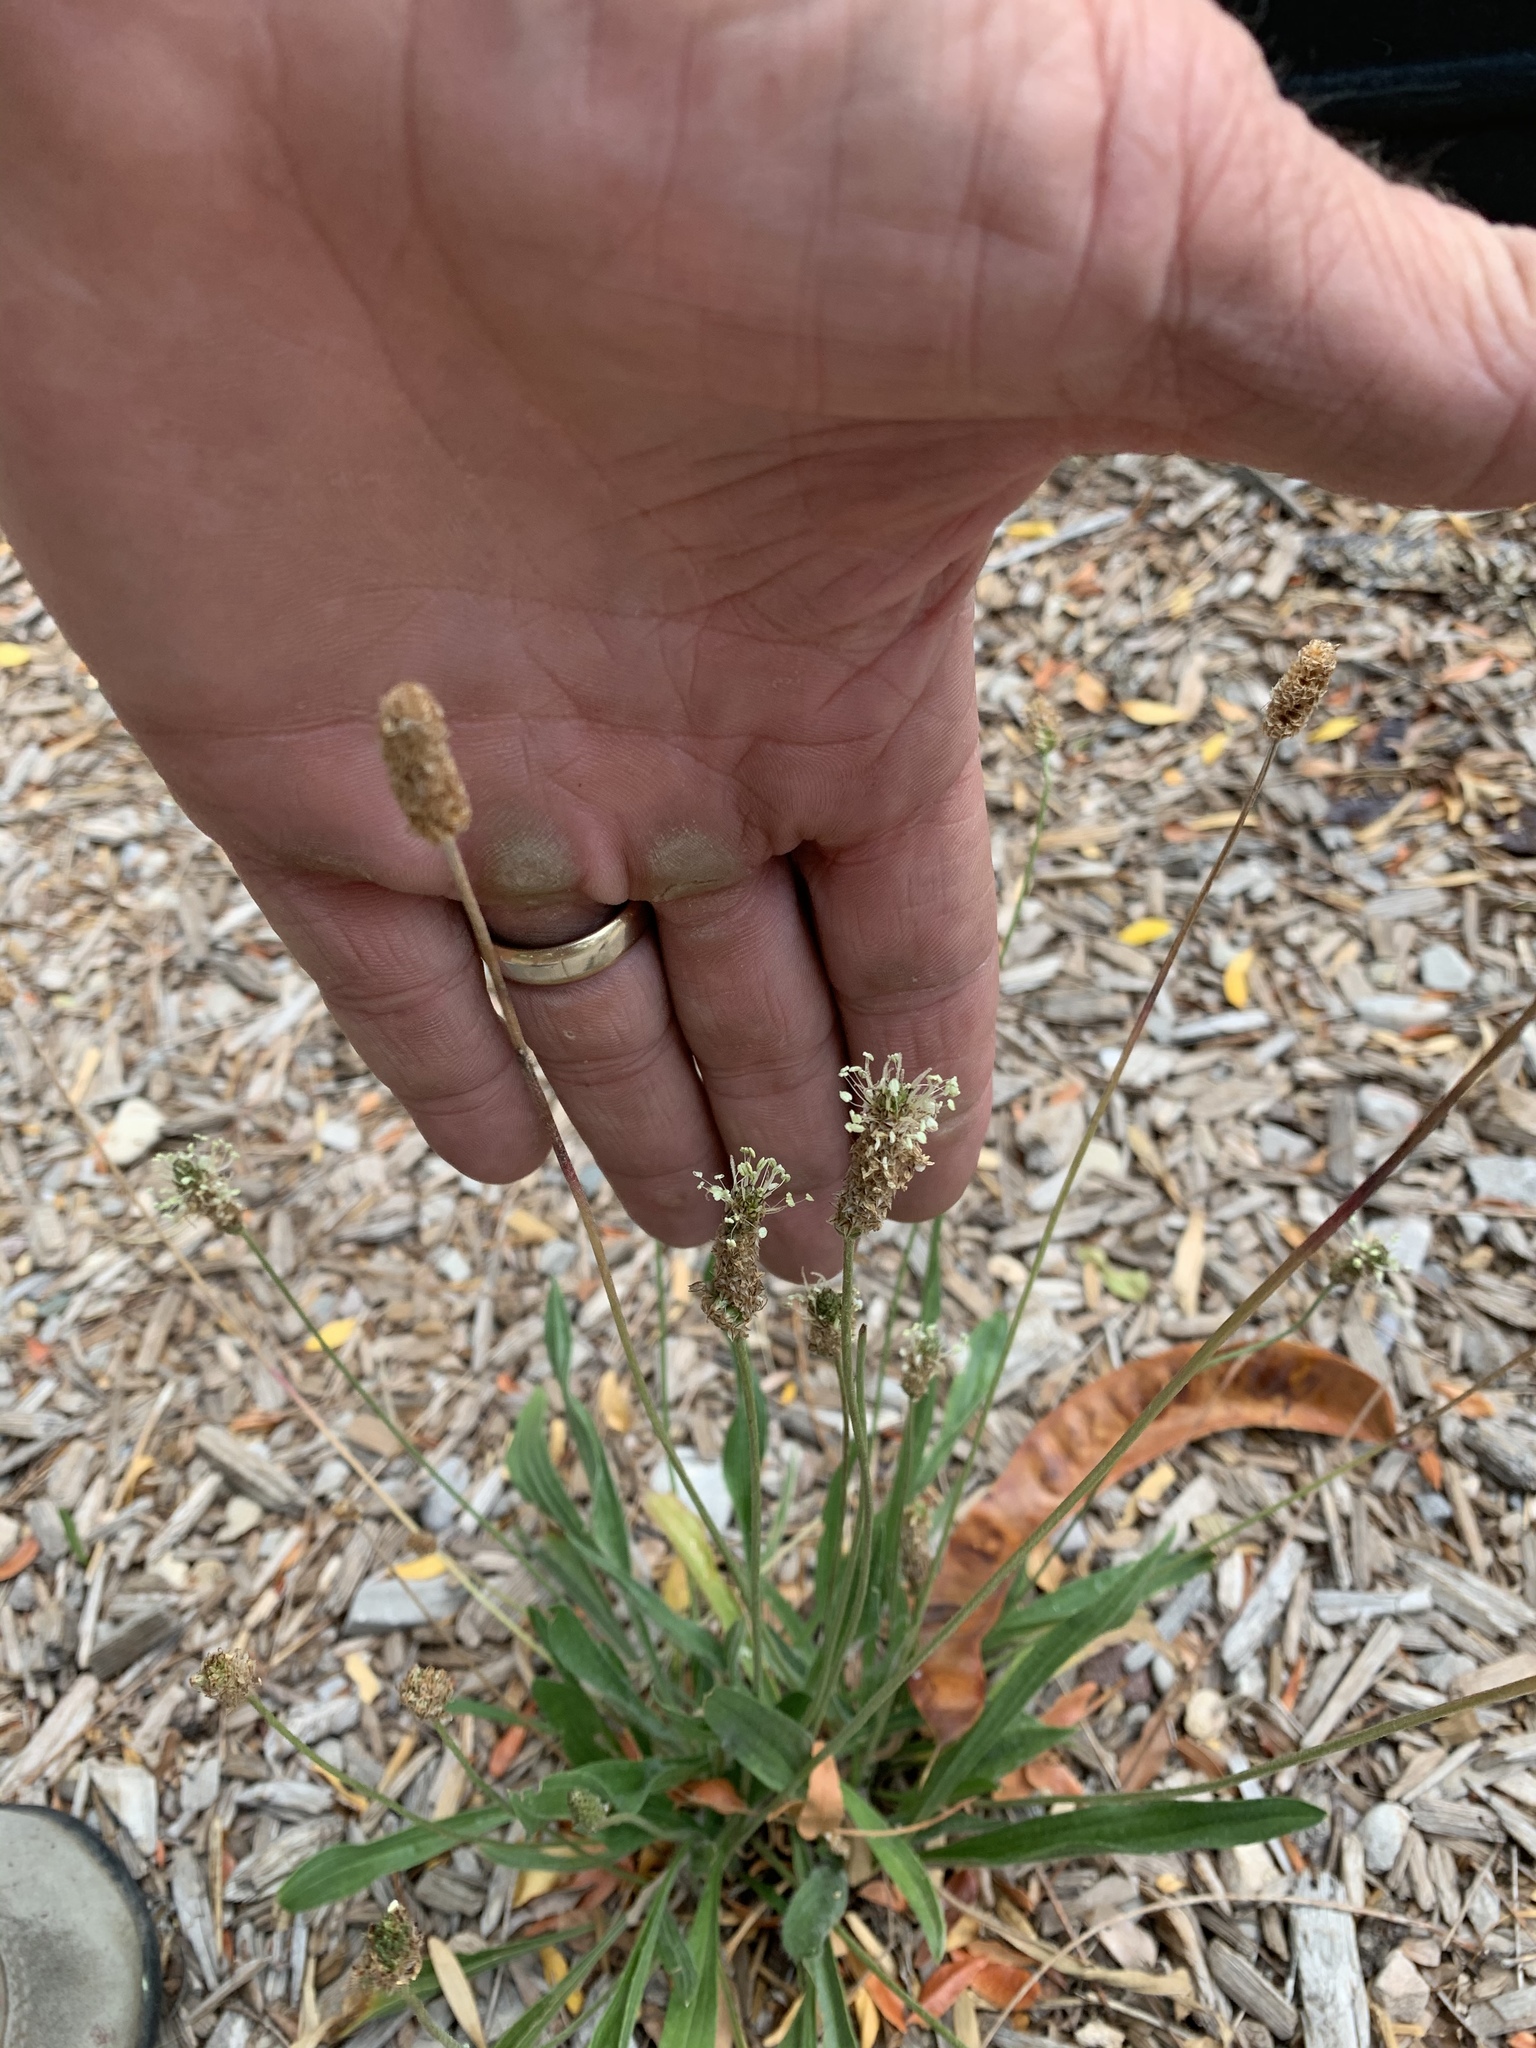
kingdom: Plantae
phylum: Tracheophyta
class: Magnoliopsida
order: Lamiales
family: Plantaginaceae
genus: Plantago
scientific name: Plantago lanceolata
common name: Ribwort plantain
